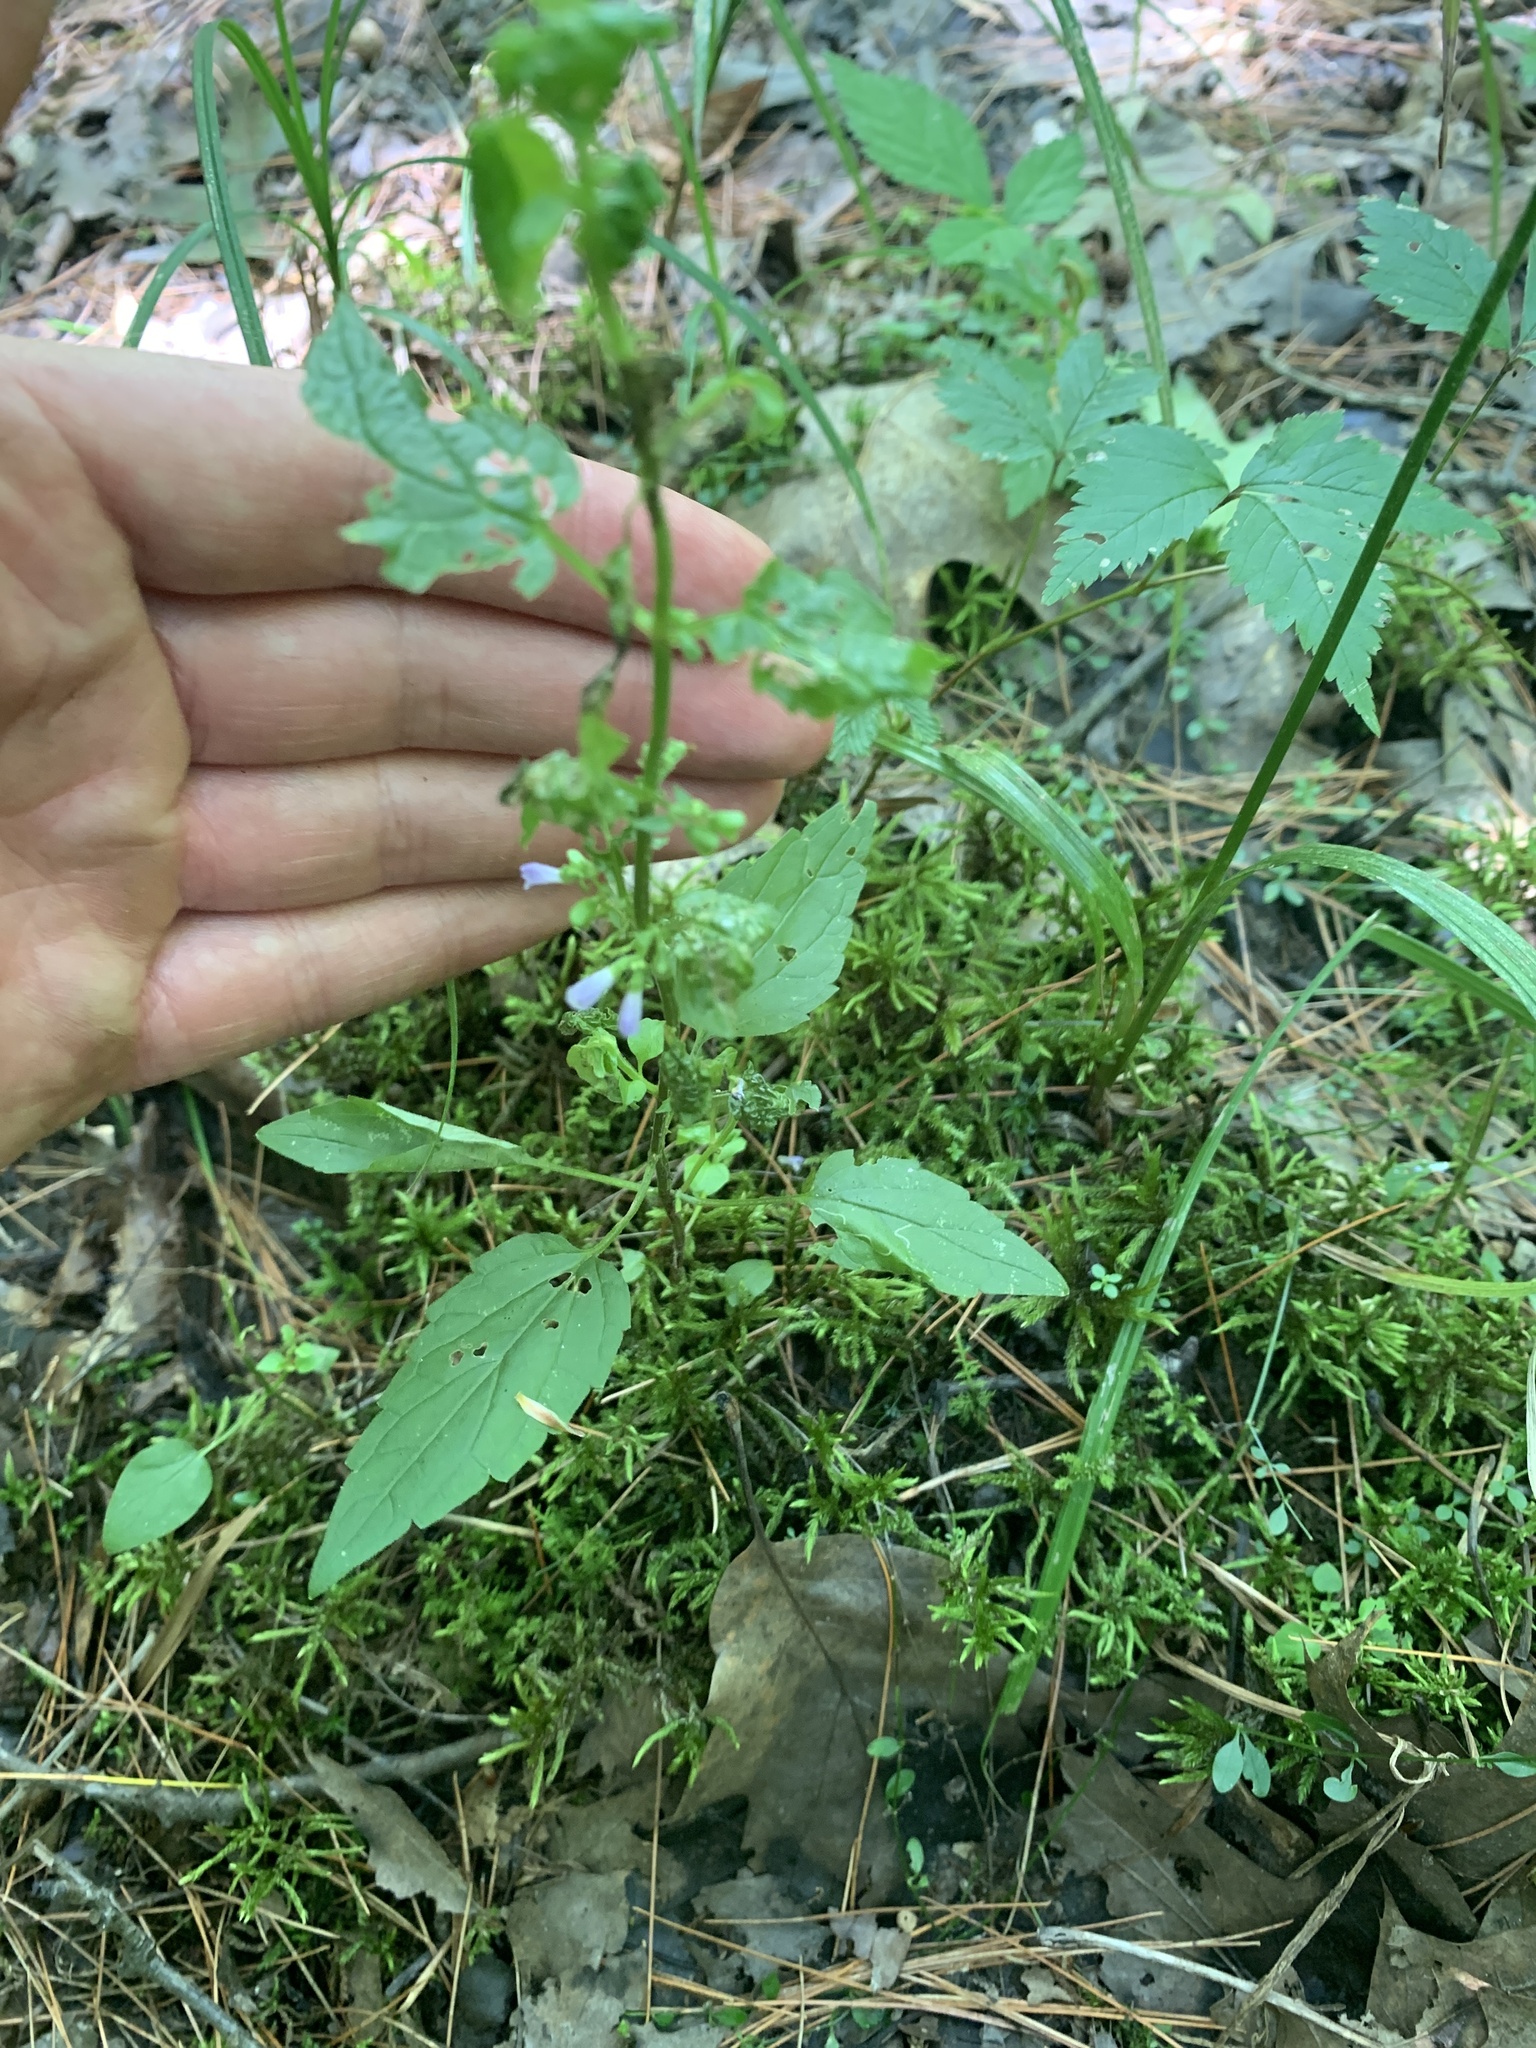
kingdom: Plantae
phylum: Tracheophyta
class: Magnoliopsida
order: Lamiales
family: Lamiaceae
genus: Scutellaria
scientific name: Scutellaria lateriflora
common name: Blue skullcap
